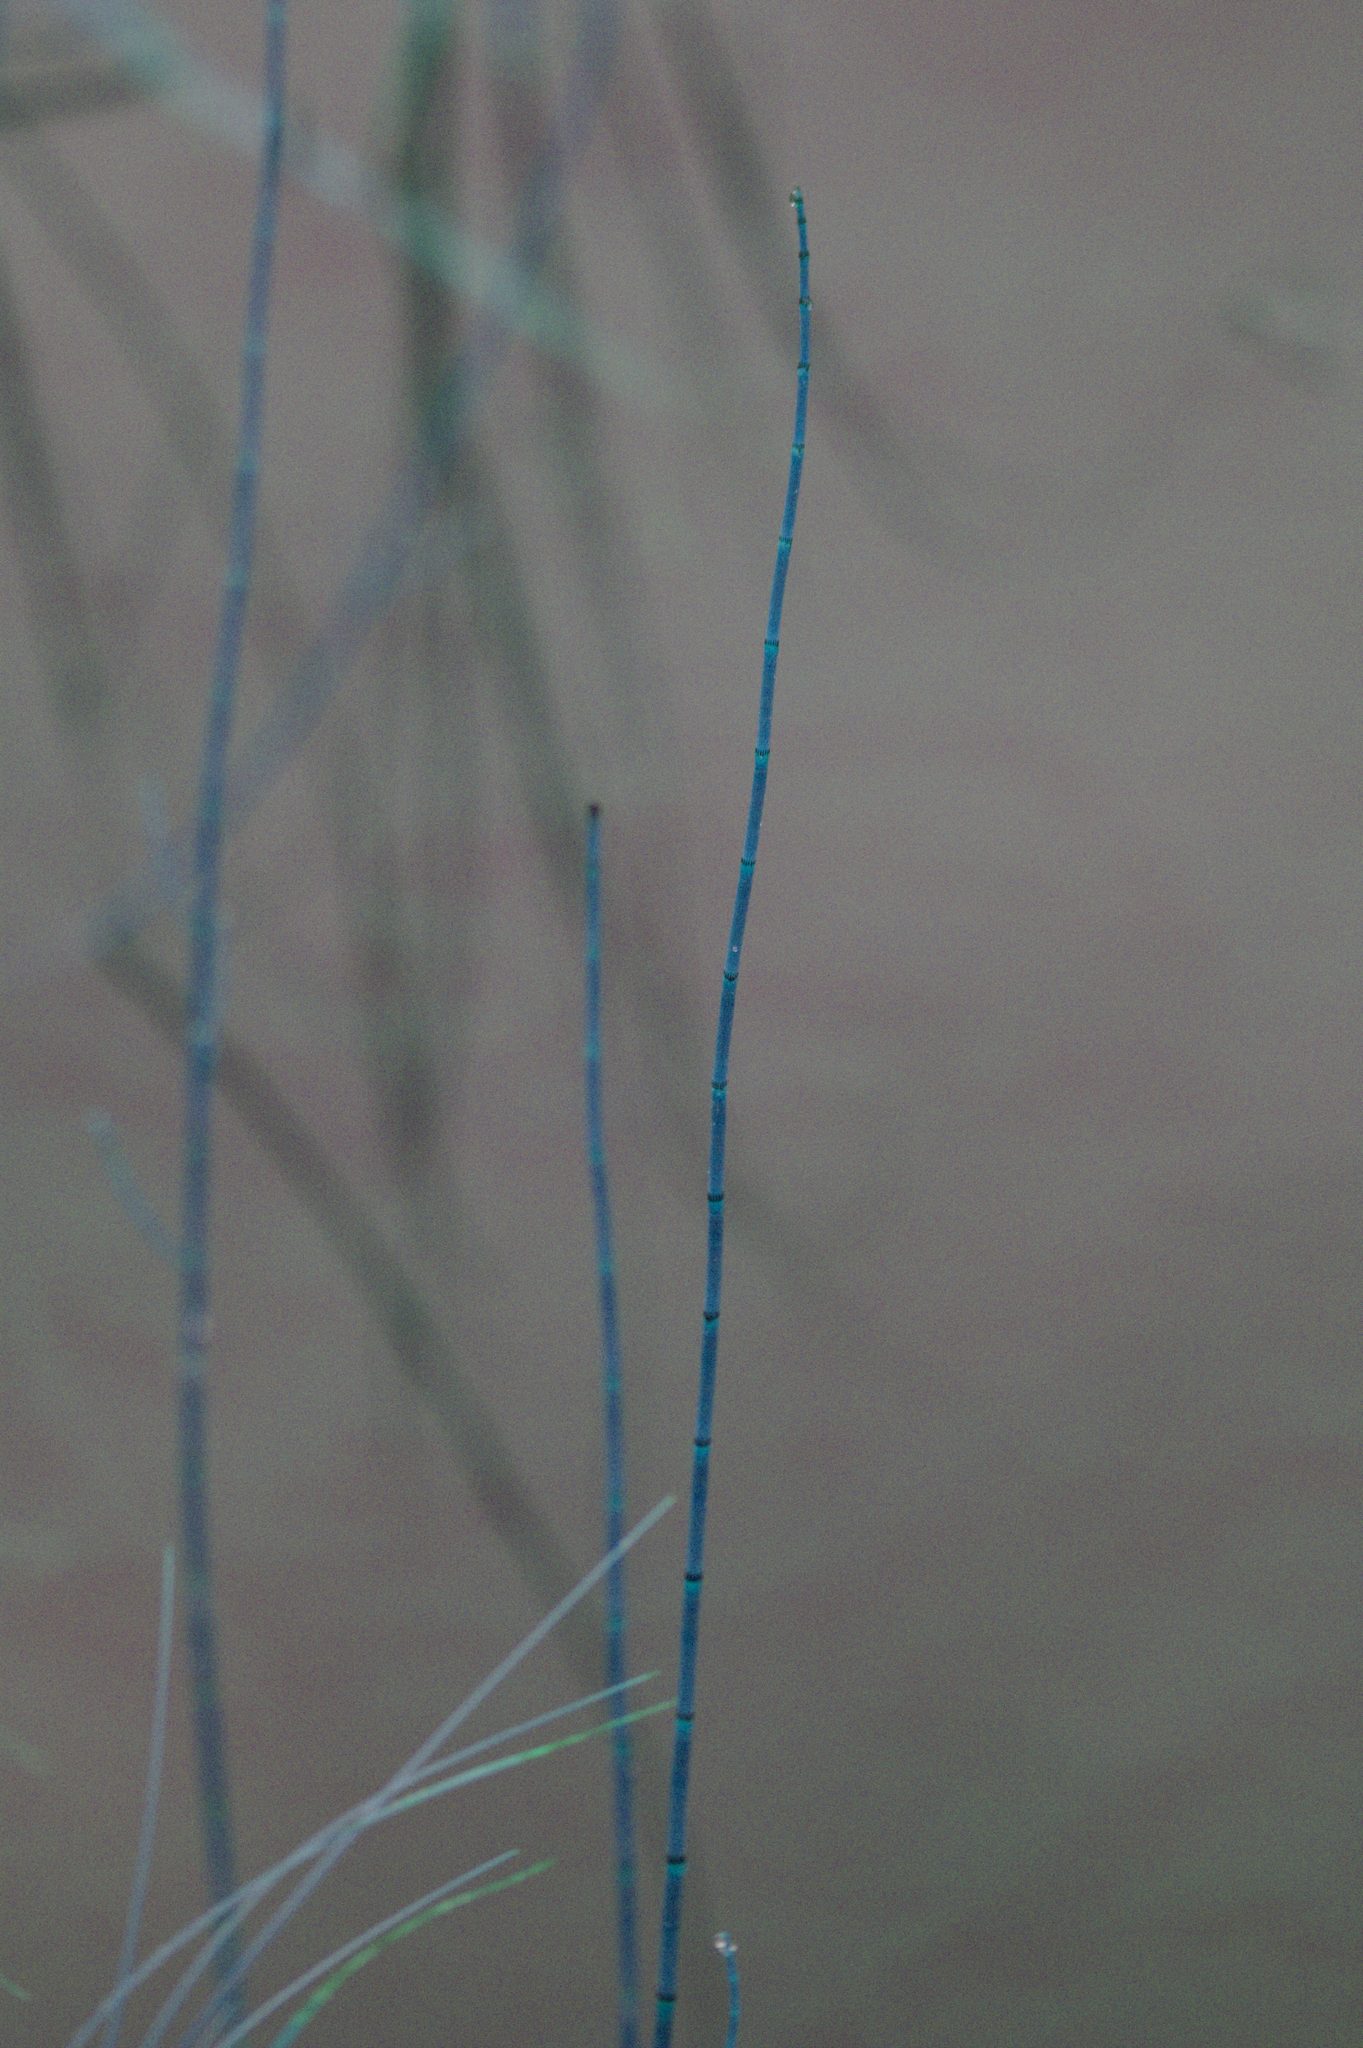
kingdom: Plantae
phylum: Tracheophyta
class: Polypodiopsida
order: Equisetales
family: Equisetaceae
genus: Equisetum
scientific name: Equisetum fluviatile
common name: Water horsetail
